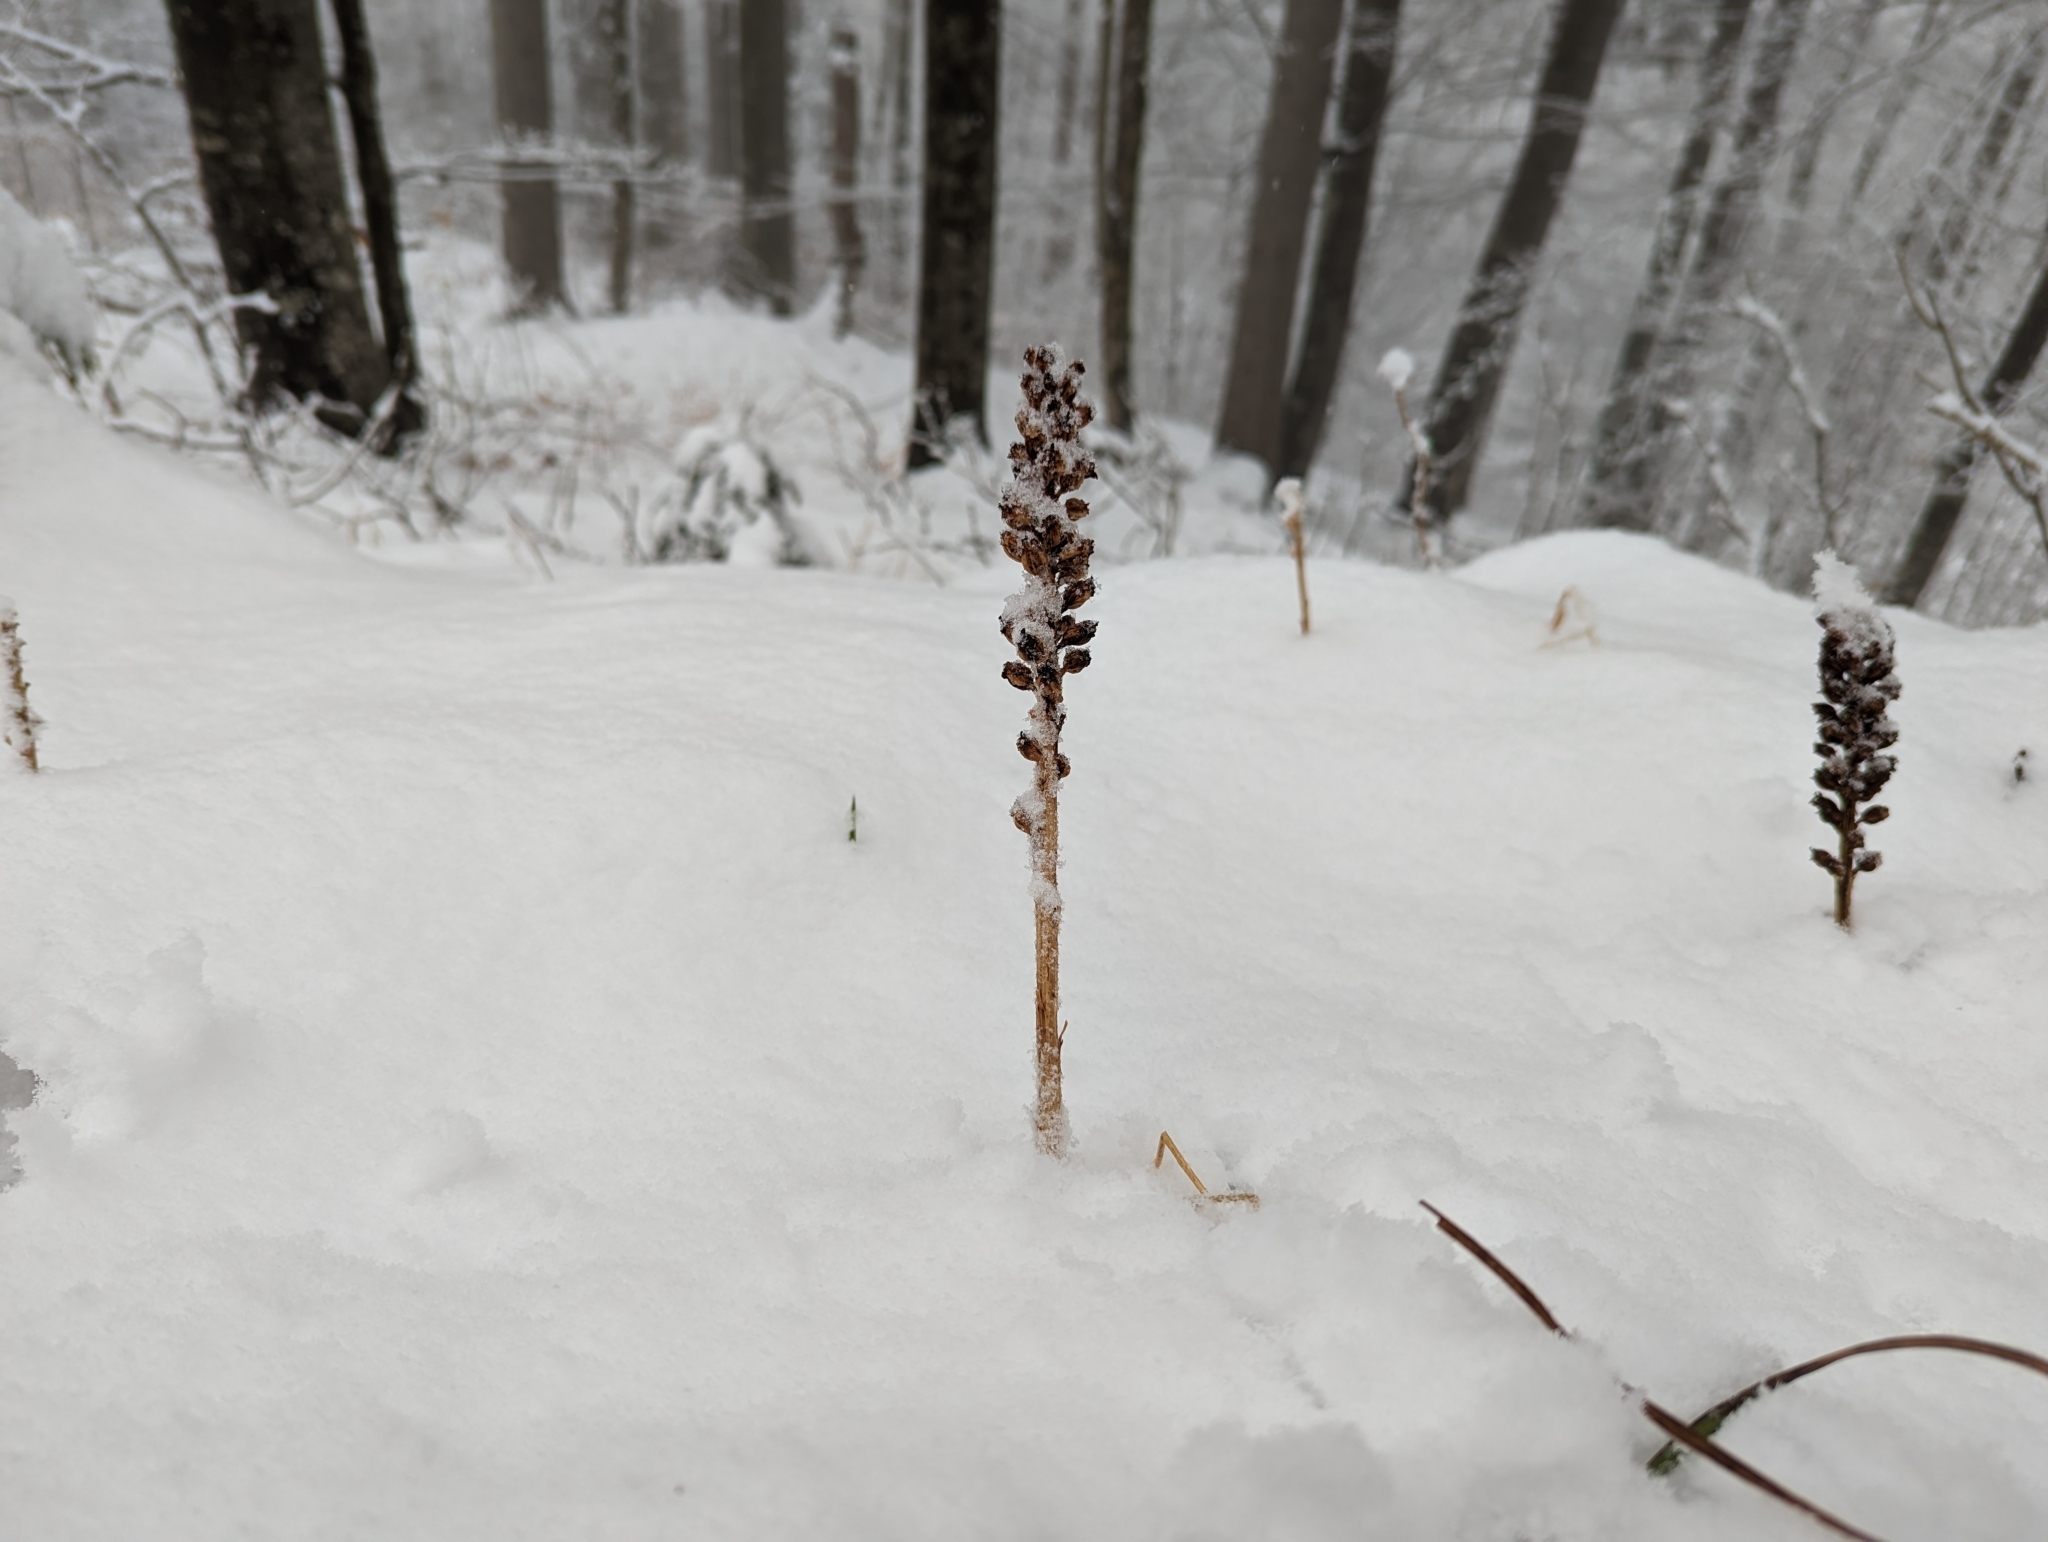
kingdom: Plantae
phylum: Tracheophyta
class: Liliopsida
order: Asparagales
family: Orchidaceae
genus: Neottia
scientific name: Neottia nidus-avis
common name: Bird's-nest orchid
